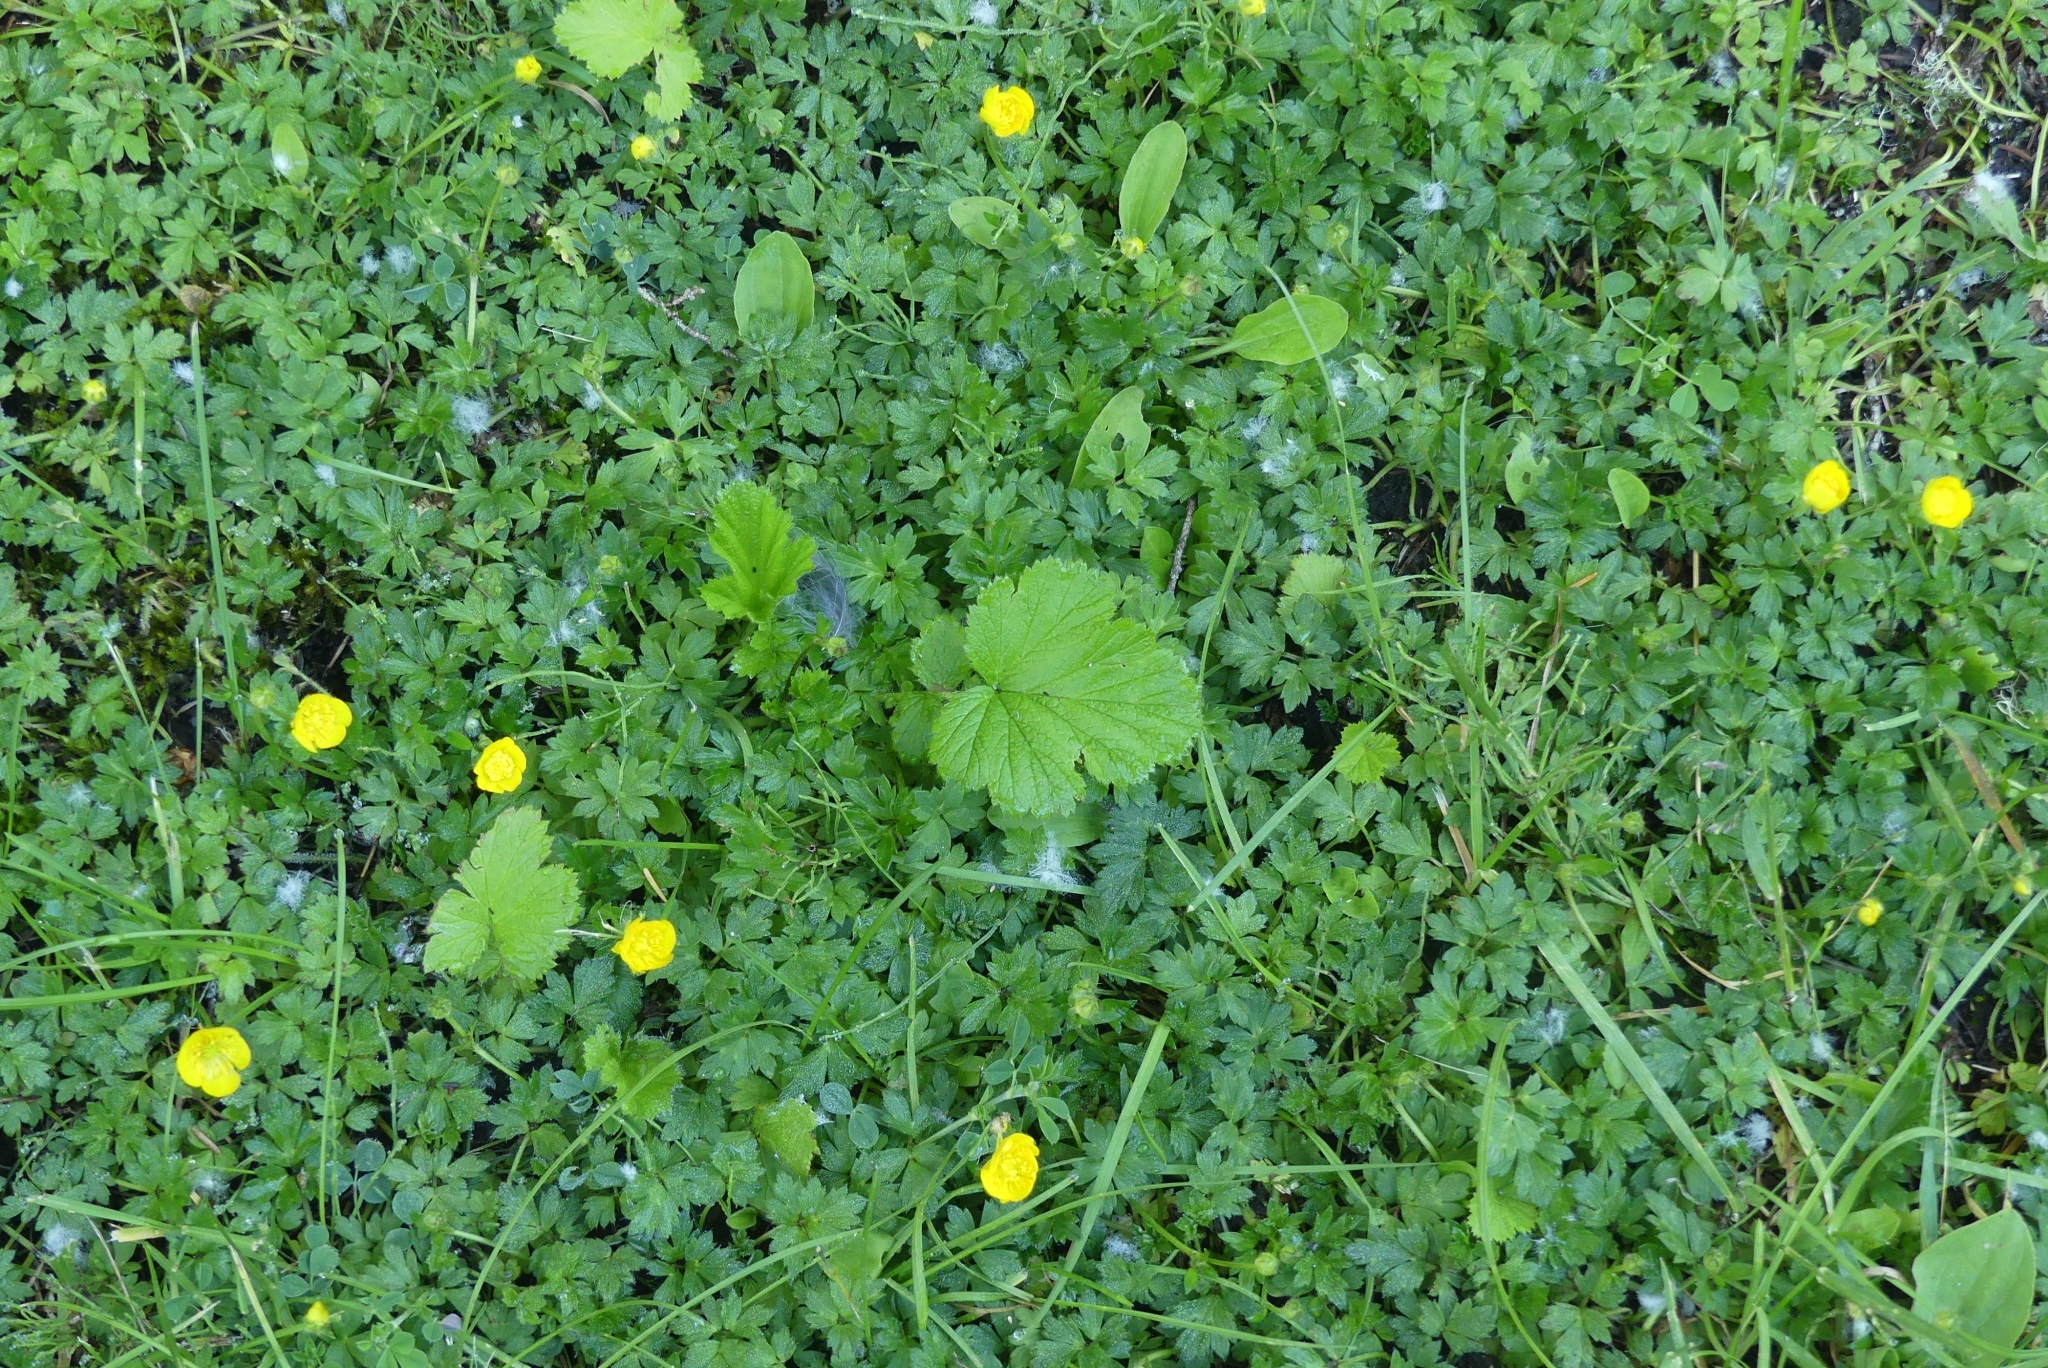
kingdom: Plantae
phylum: Tracheophyta
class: Magnoliopsida
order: Rosales
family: Rosaceae
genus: Geum
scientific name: Geum macrophyllum
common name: Large-leaved avens
